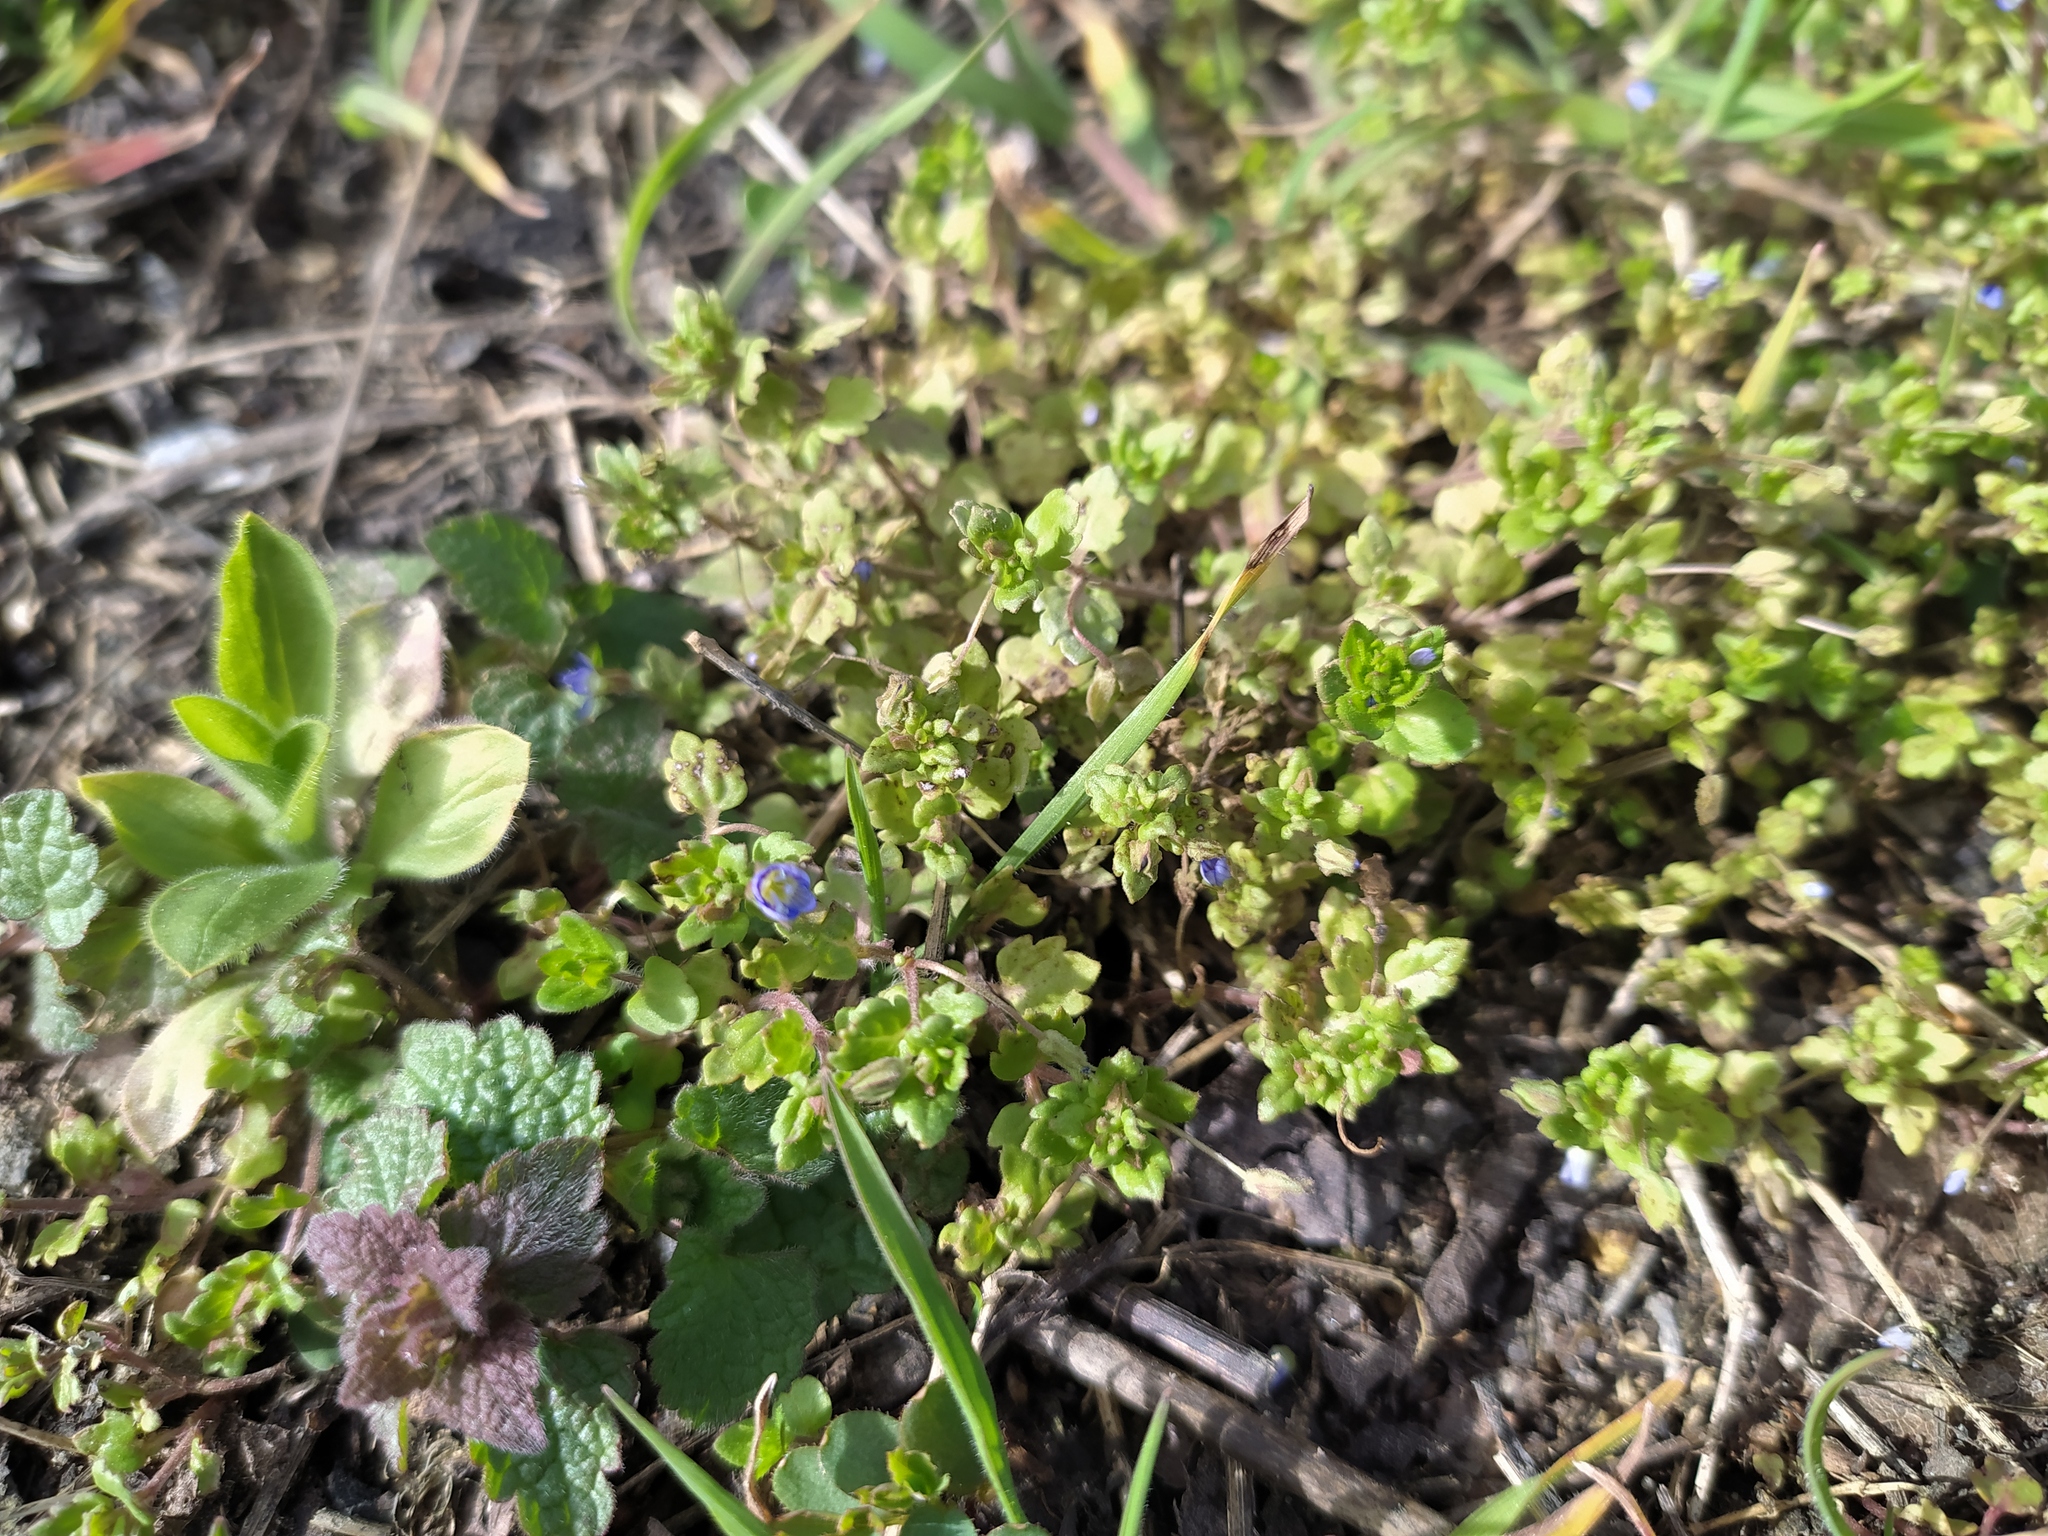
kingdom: Plantae
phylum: Tracheophyta
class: Magnoliopsida
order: Lamiales
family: Plantaginaceae
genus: Veronica
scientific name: Veronica polita
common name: Grey field-speedwell
